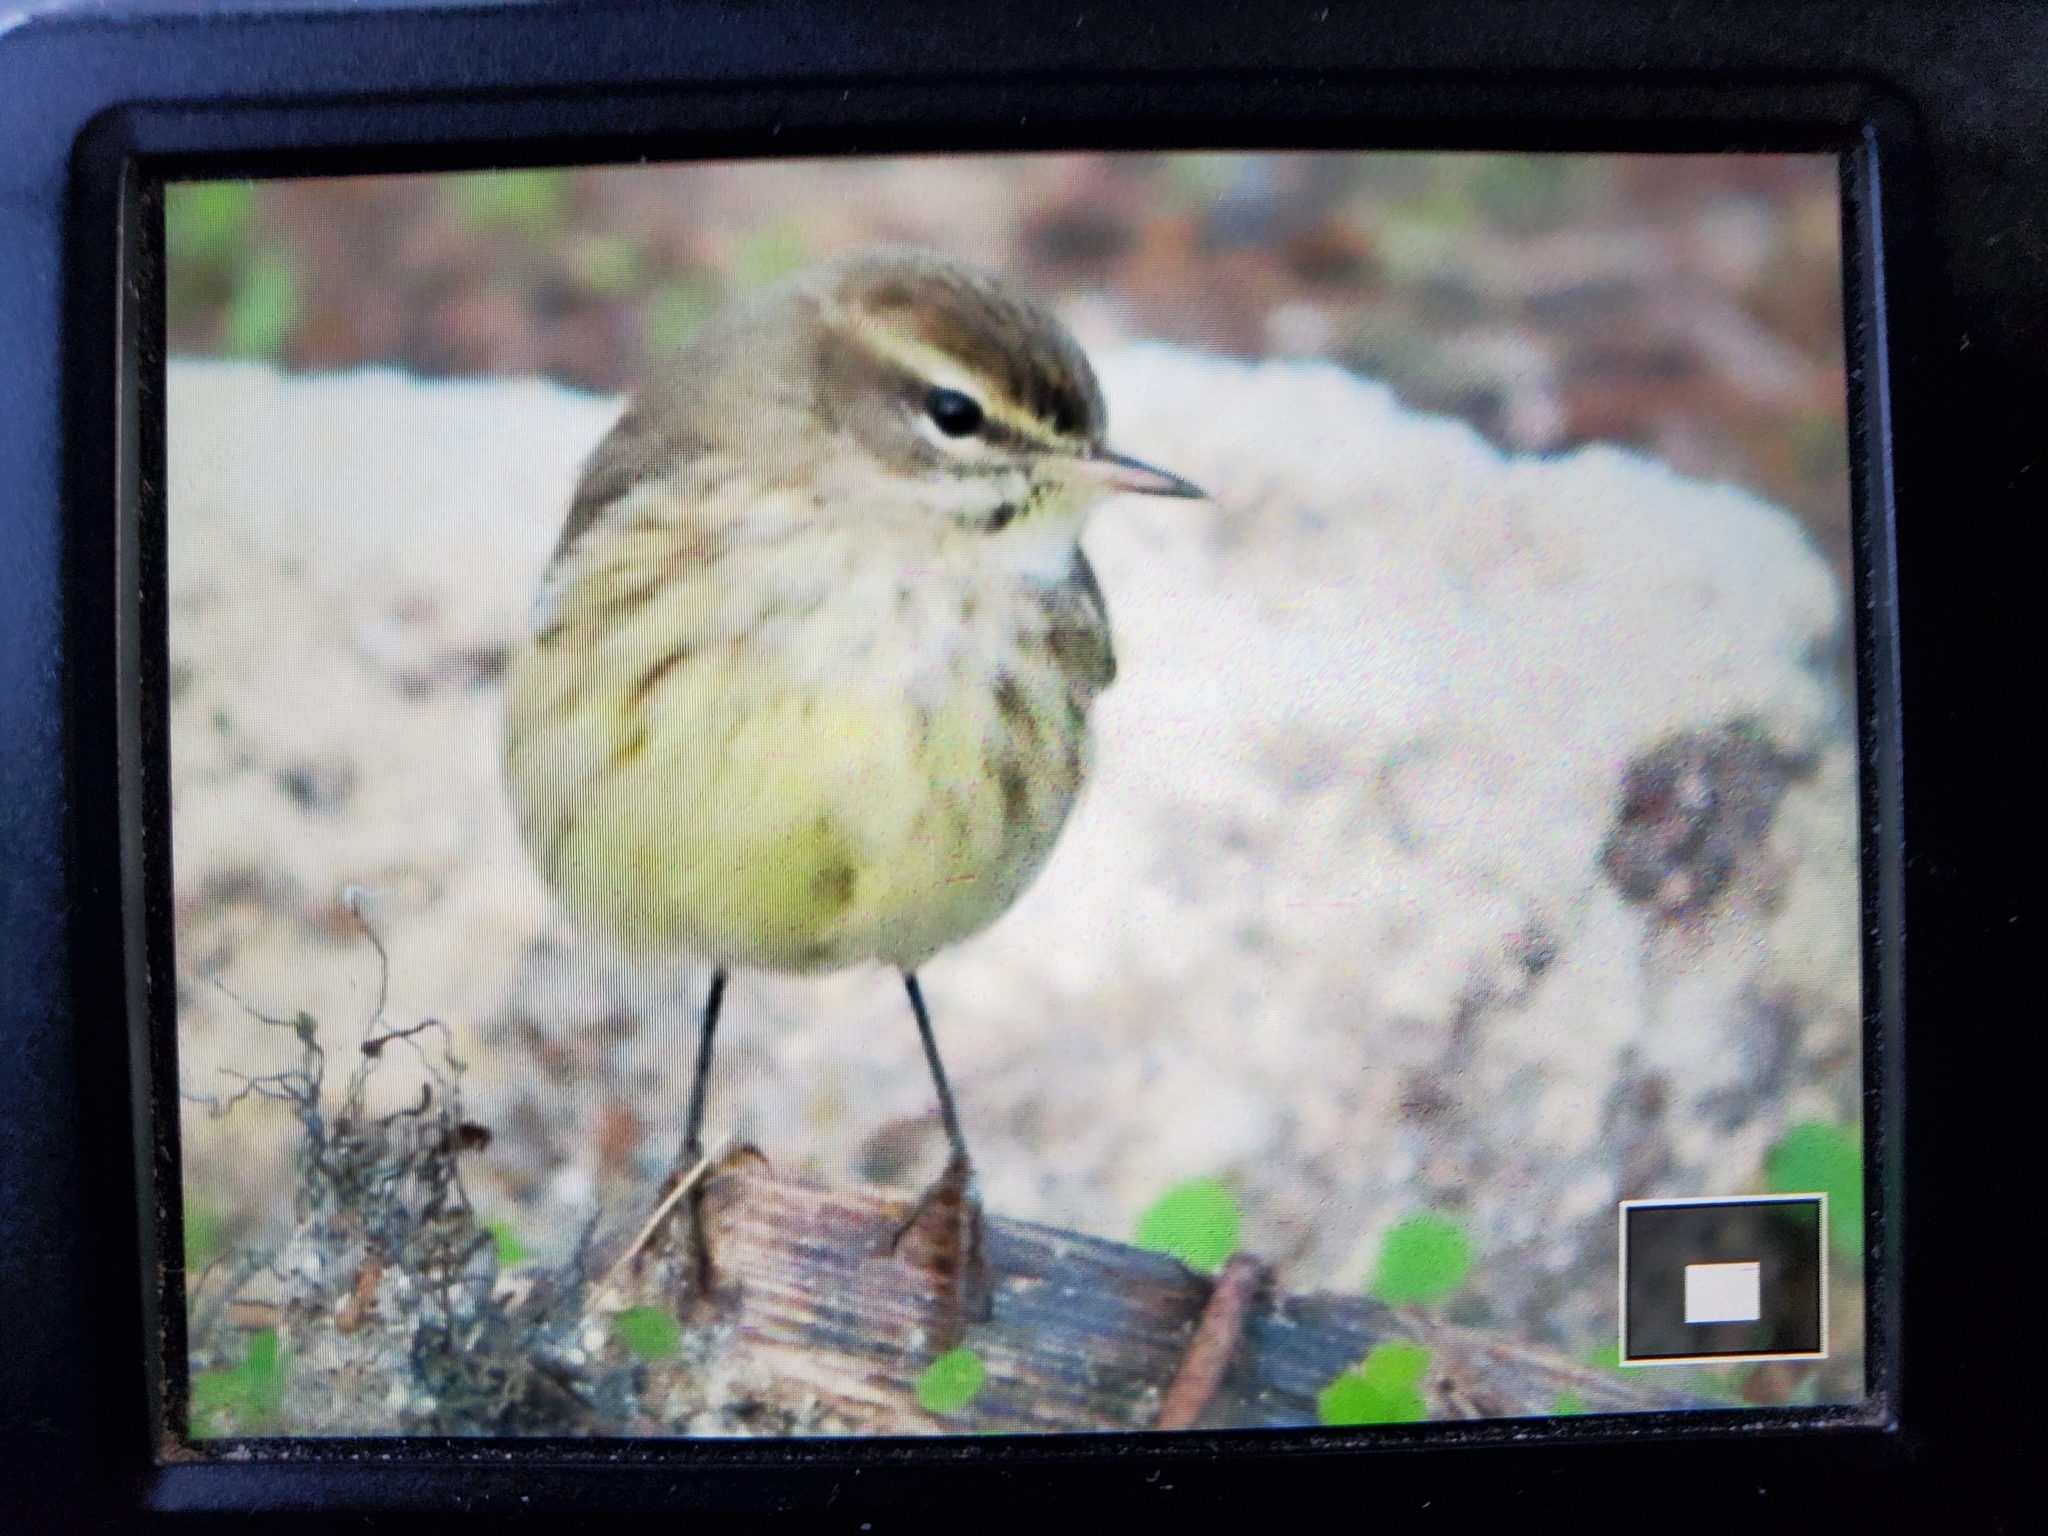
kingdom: Animalia
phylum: Chordata
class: Aves
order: Passeriformes
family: Parulidae
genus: Setophaga
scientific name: Setophaga palmarum
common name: Palm warbler
